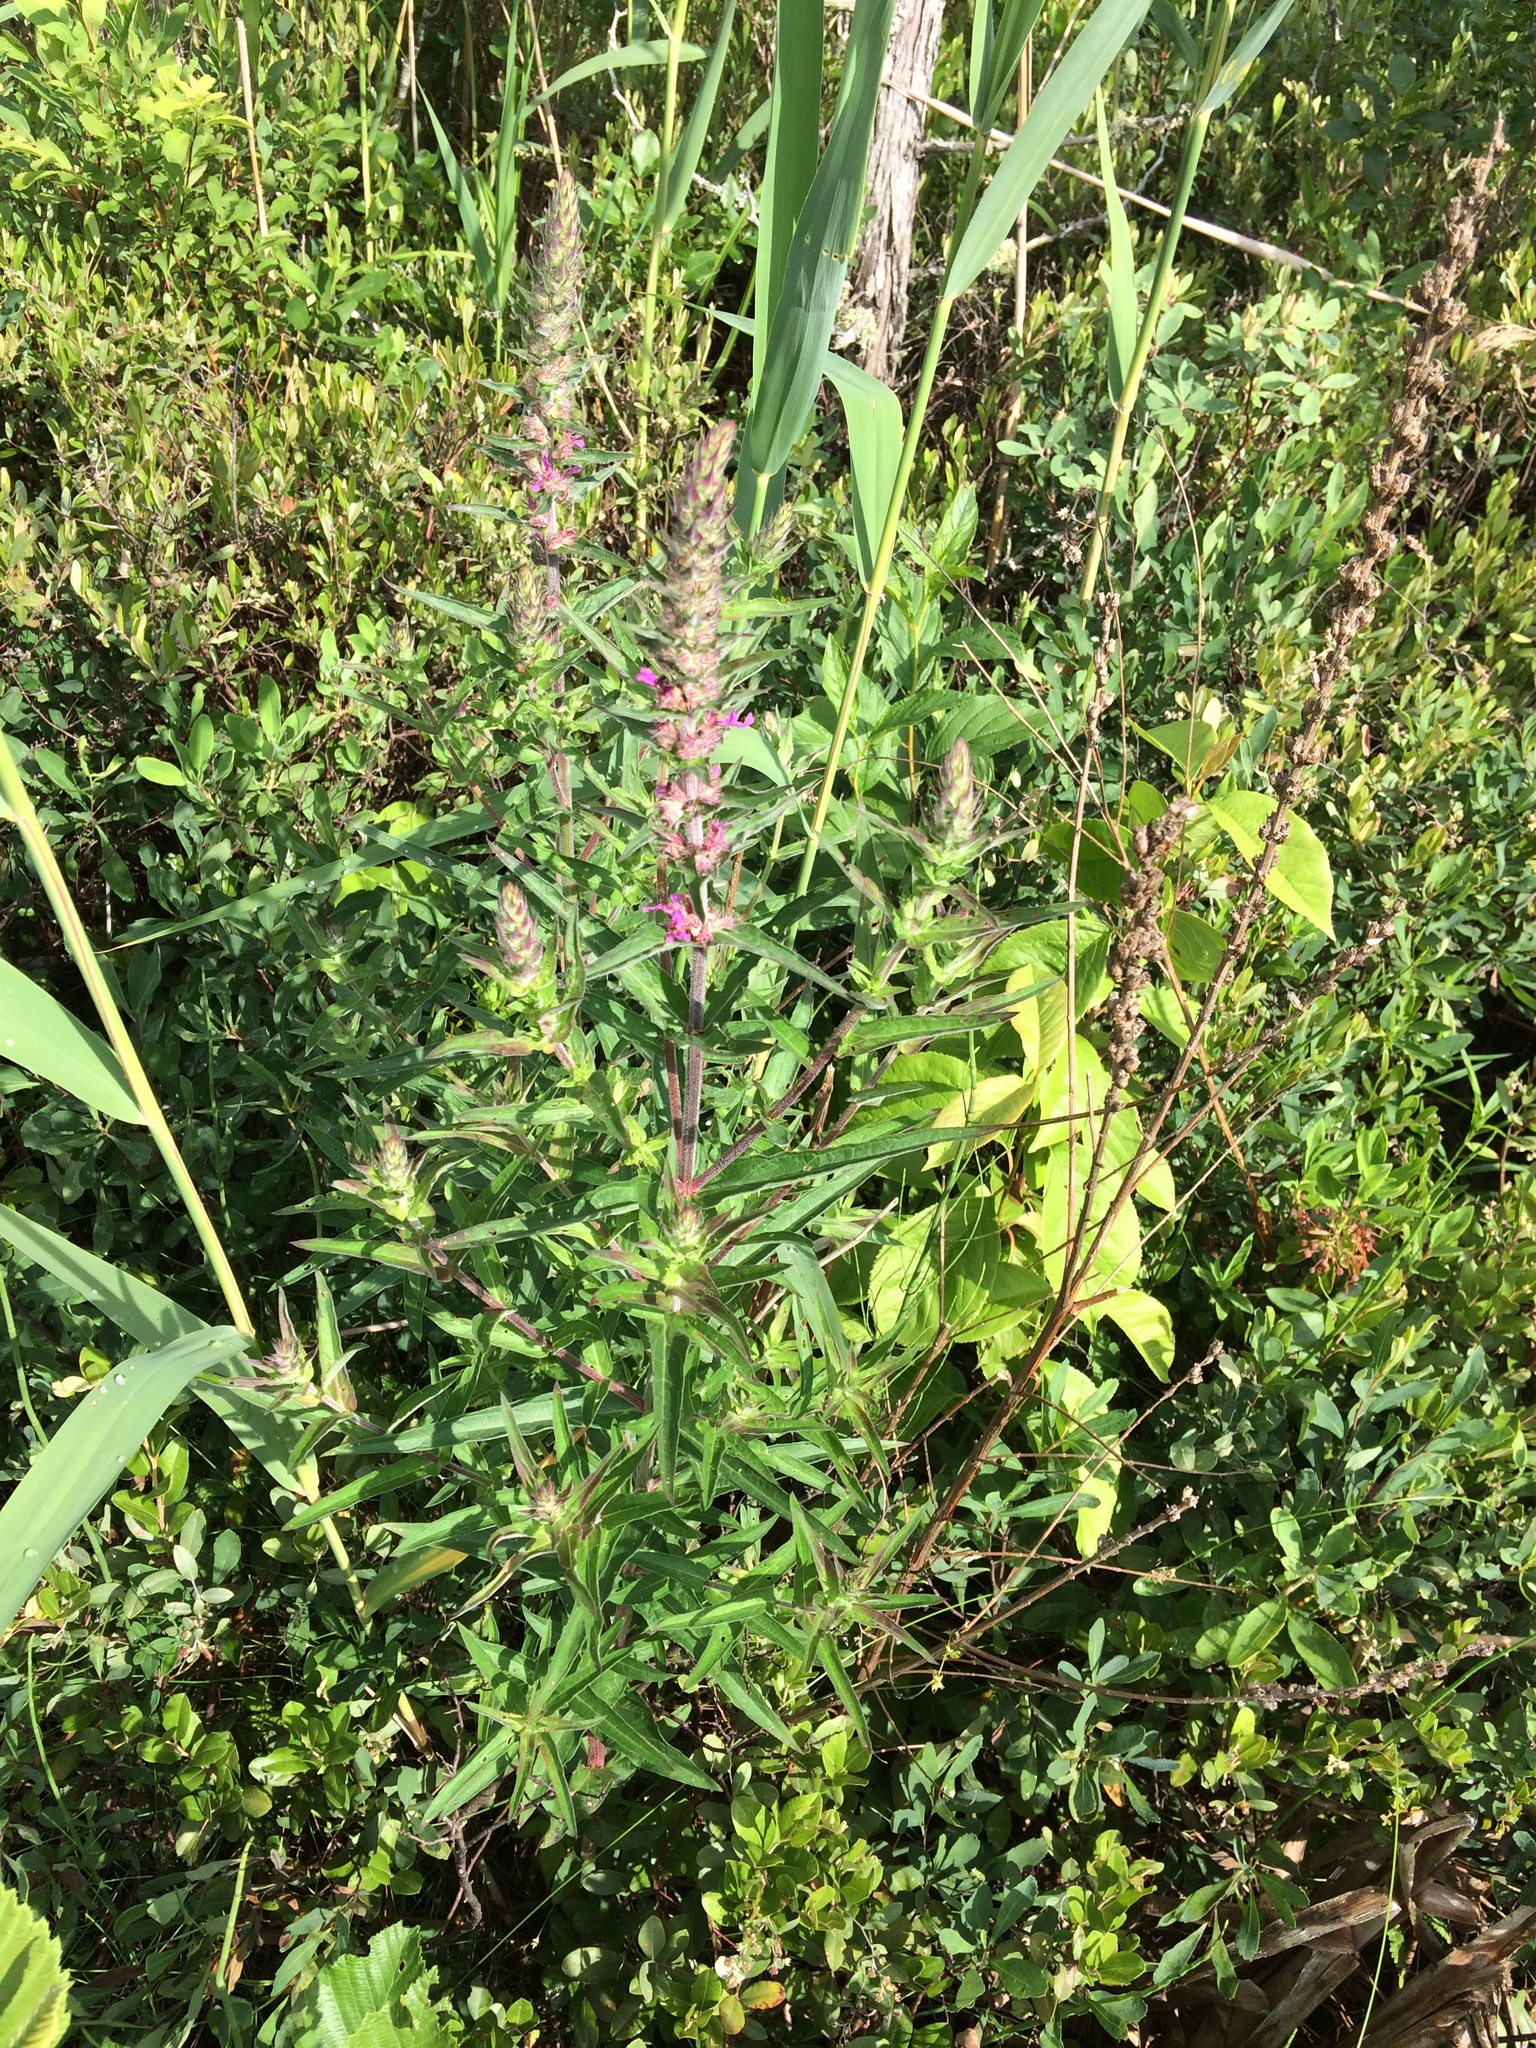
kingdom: Plantae
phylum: Tracheophyta
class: Magnoliopsida
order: Myrtales
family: Lythraceae
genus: Lythrum
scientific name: Lythrum salicaria
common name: Purple loosestrife
